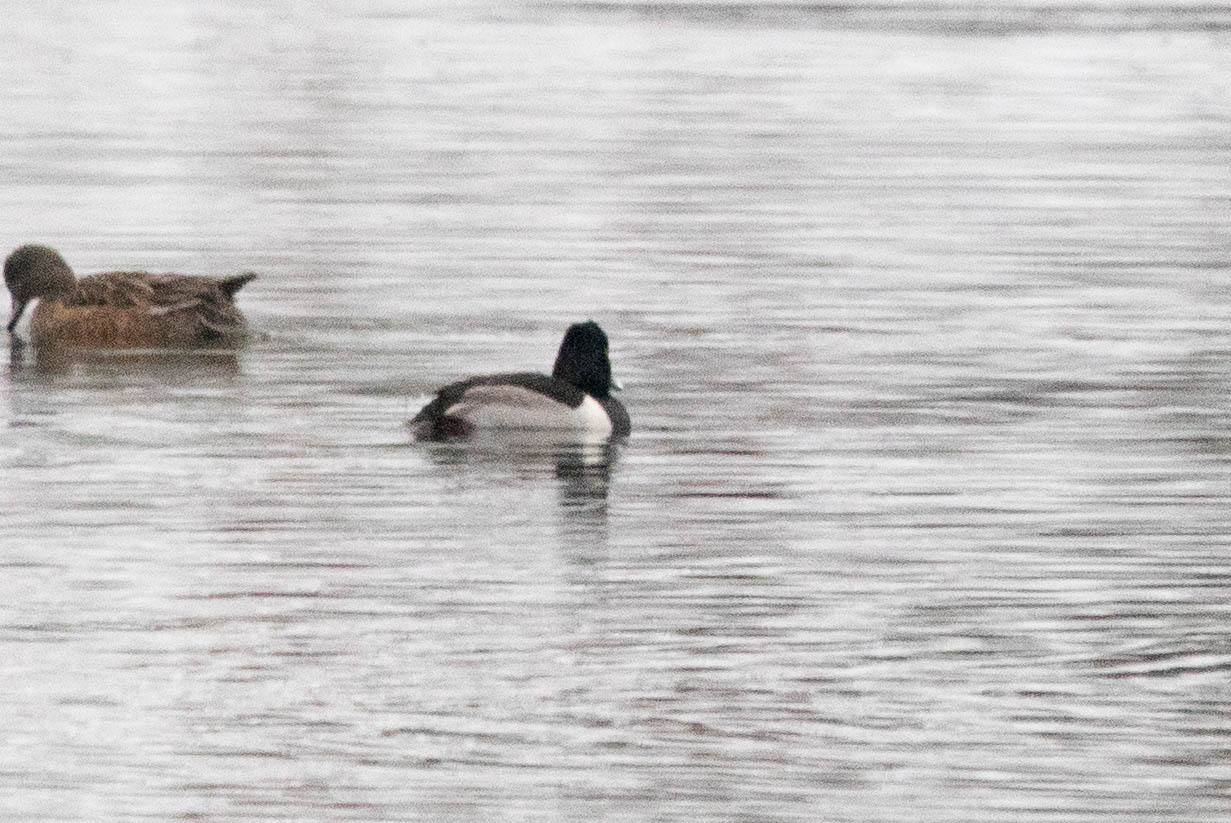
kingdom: Animalia
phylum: Chordata
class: Aves
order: Anseriformes
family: Anatidae
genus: Aythya
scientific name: Aythya collaris
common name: Ring-necked duck
